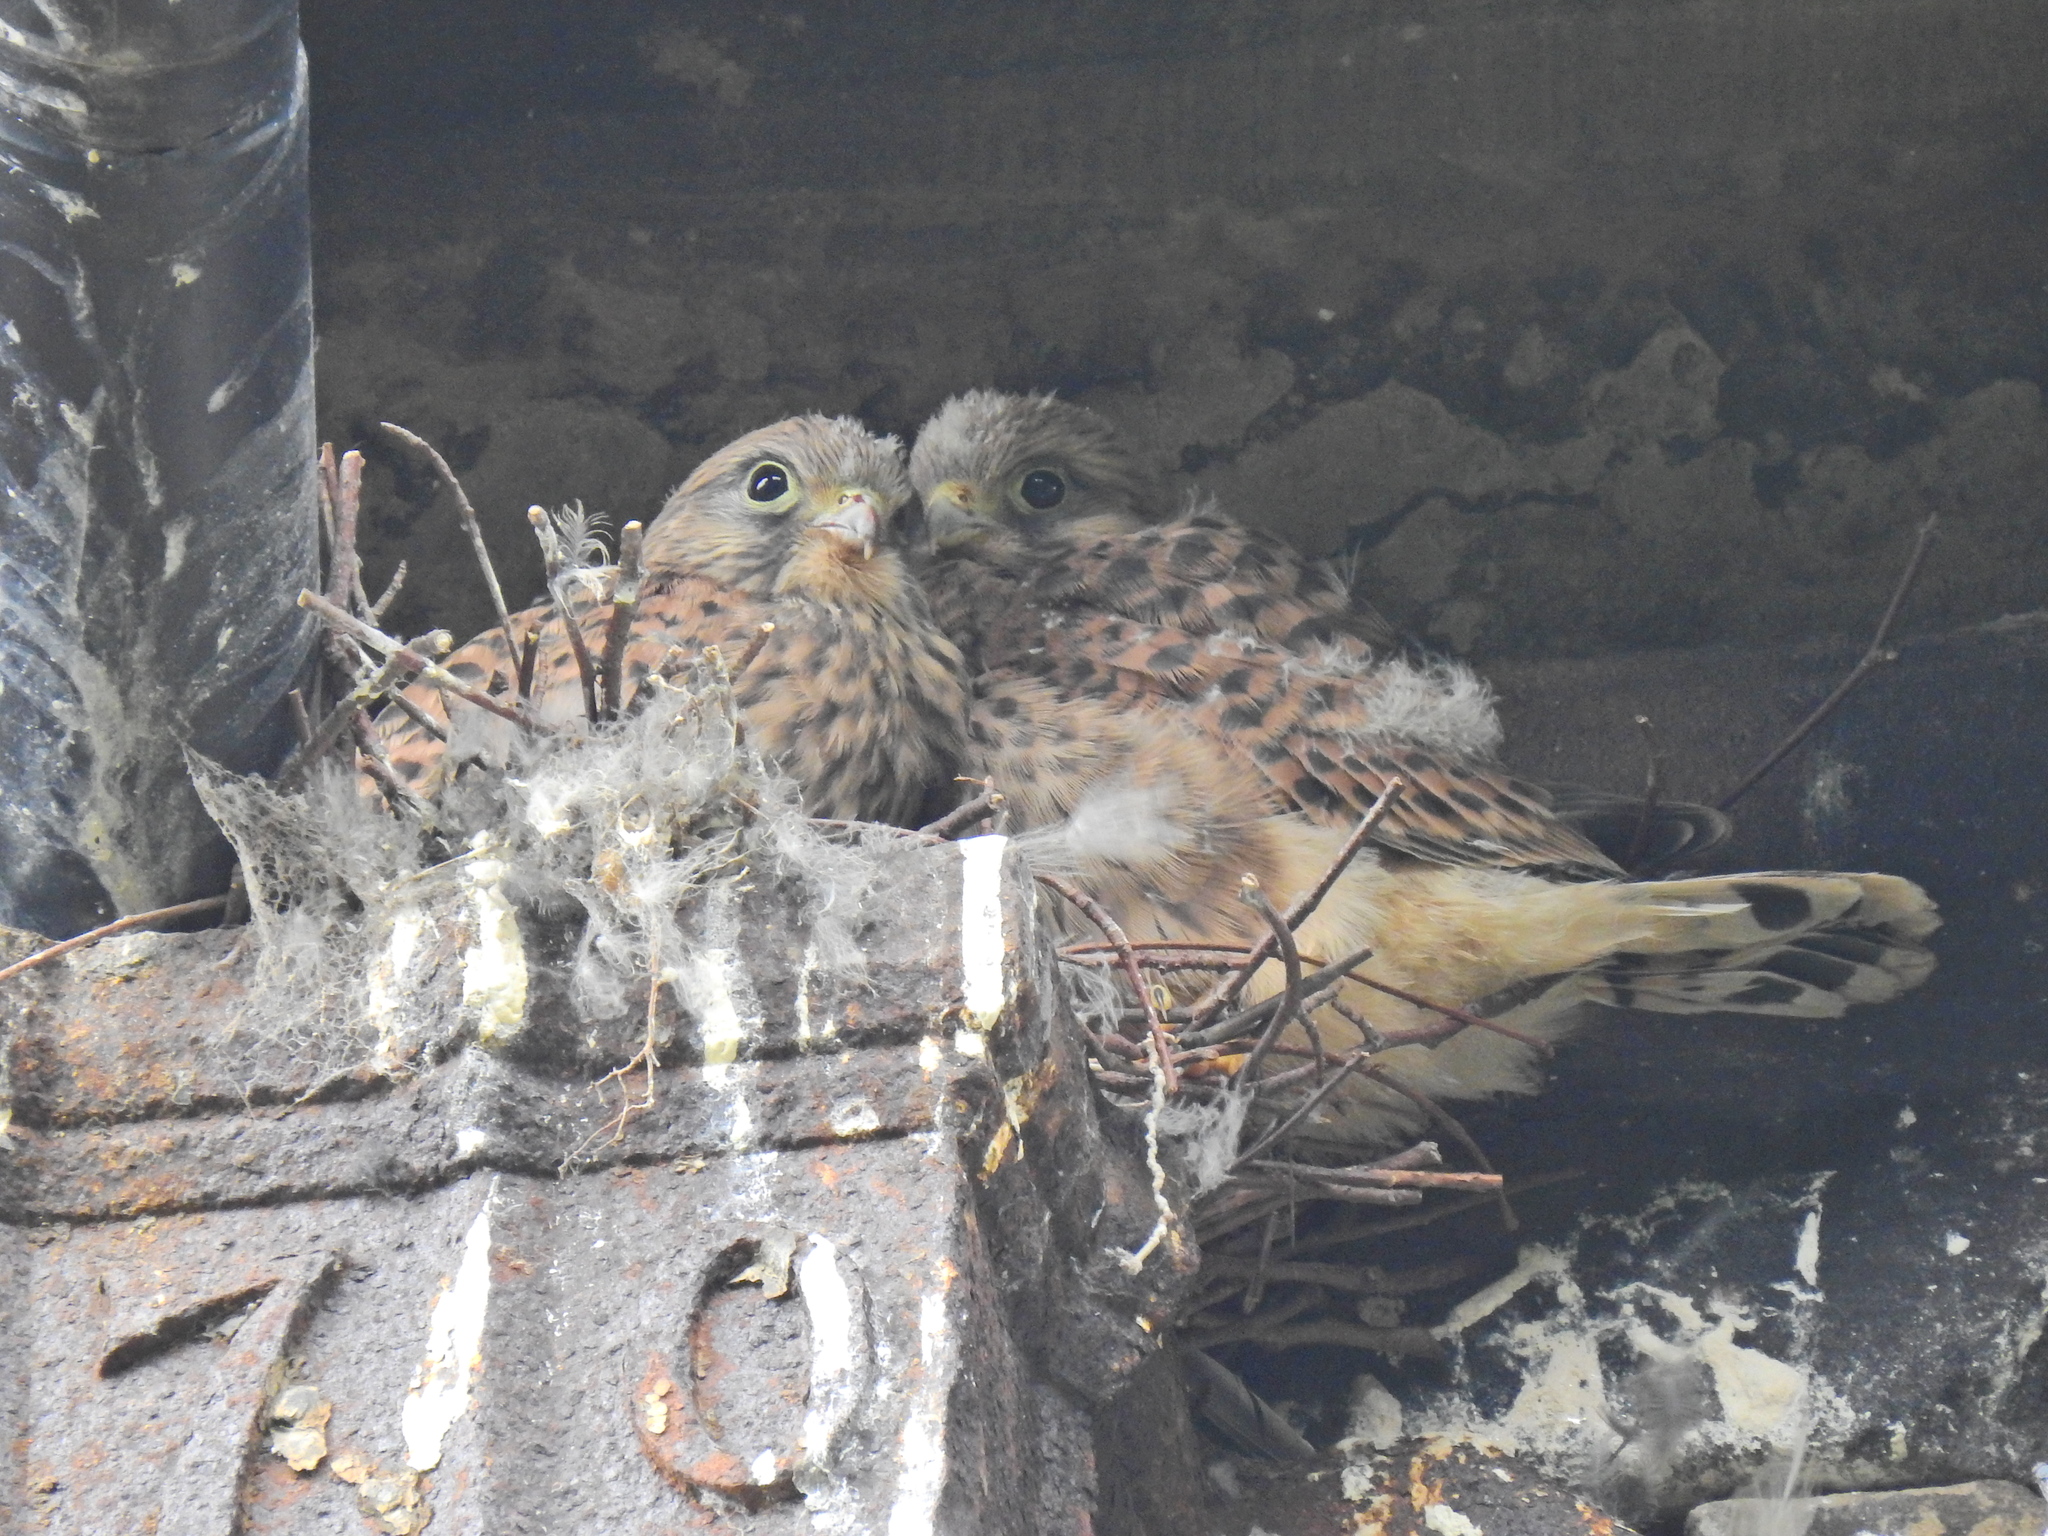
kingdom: Animalia
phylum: Chordata
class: Aves
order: Falconiformes
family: Falconidae
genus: Falco
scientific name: Falco tinnunculus
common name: Common kestrel
